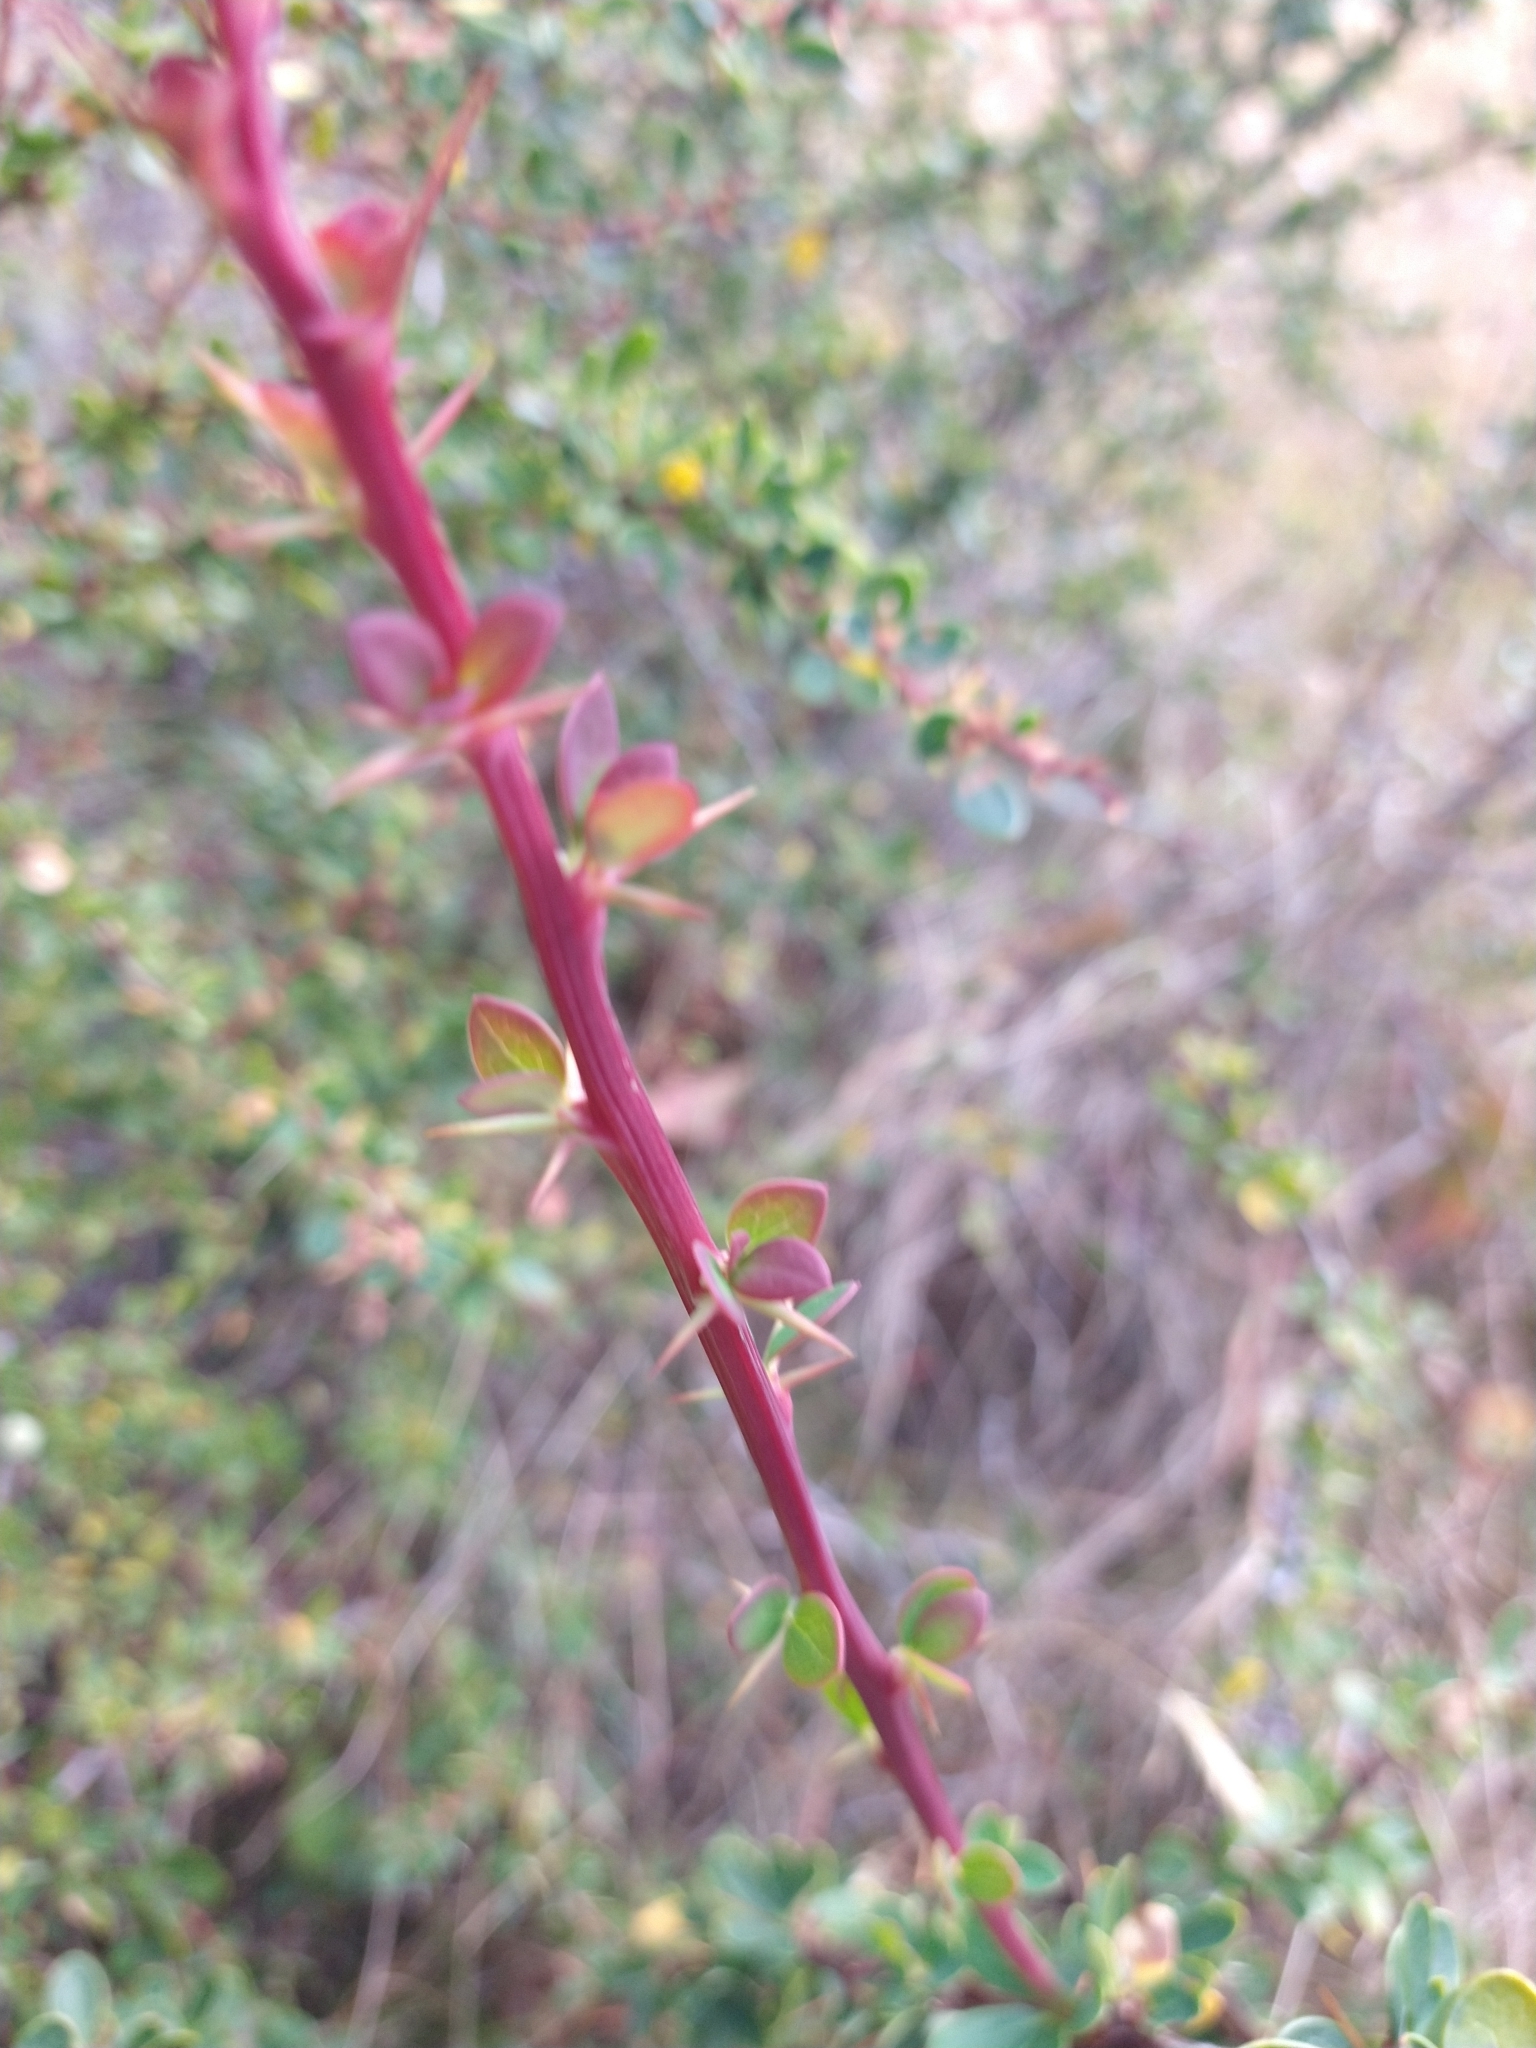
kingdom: Plantae
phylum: Tracheophyta
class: Magnoliopsida
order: Ranunculales
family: Berberidaceae
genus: Berberis
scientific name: Berberis microphylla
